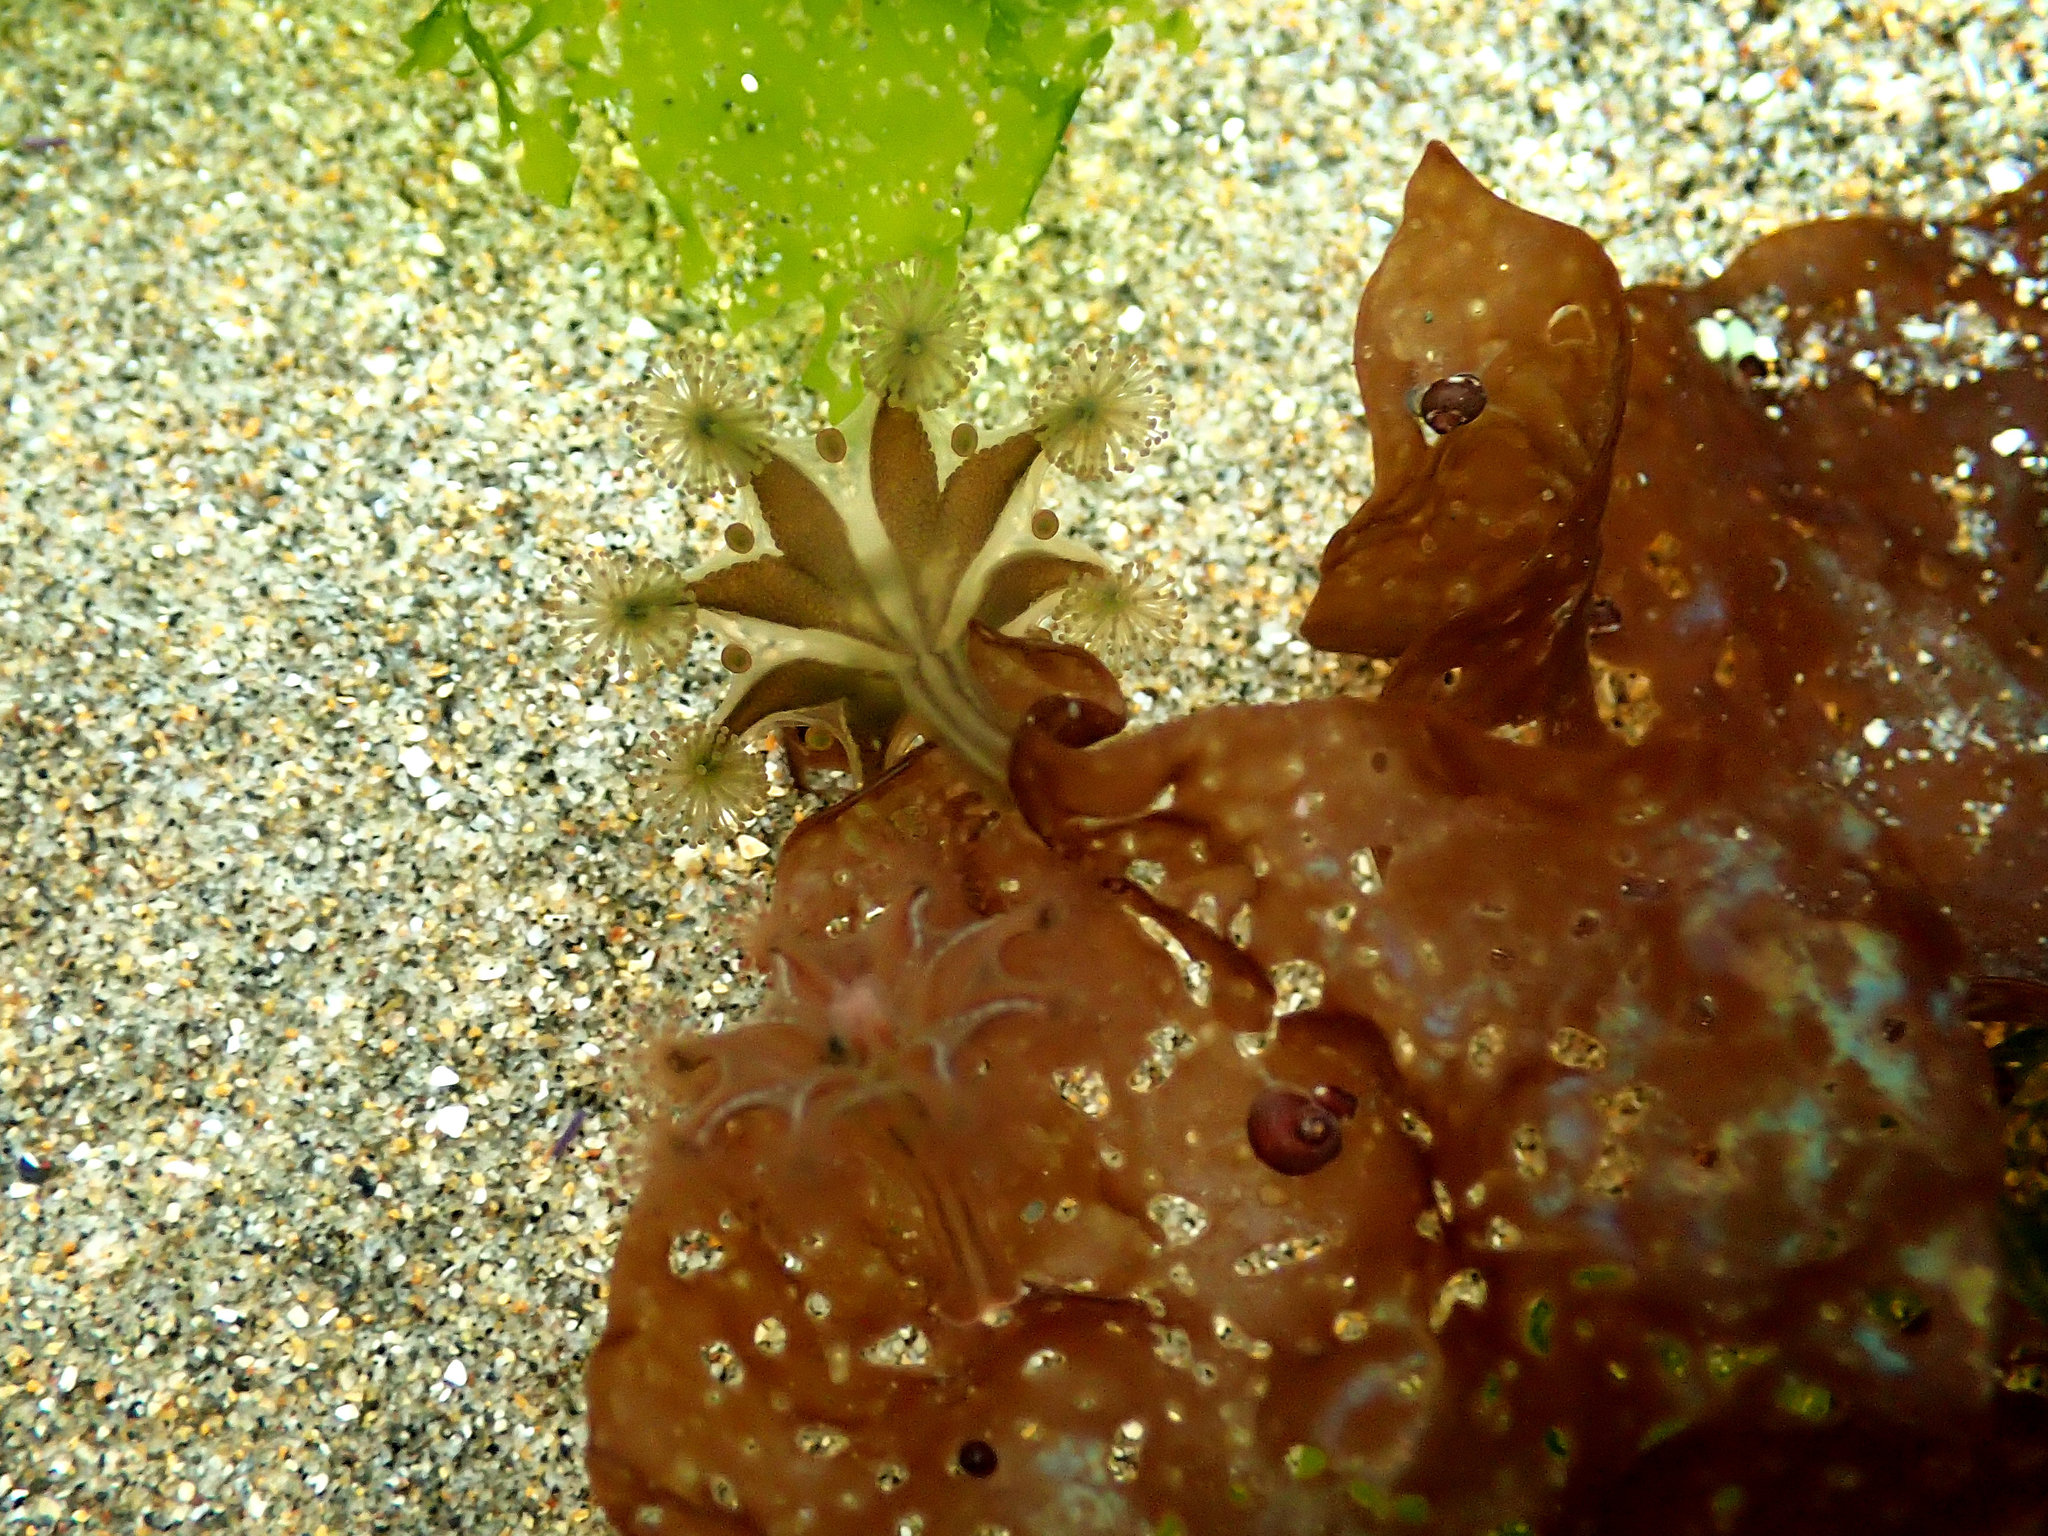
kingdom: Animalia
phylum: Cnidaria
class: Staurozoa
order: Stauromedusae
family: Haliclystidae
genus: Haliclystus
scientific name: Haliclystus sanjuanensis
